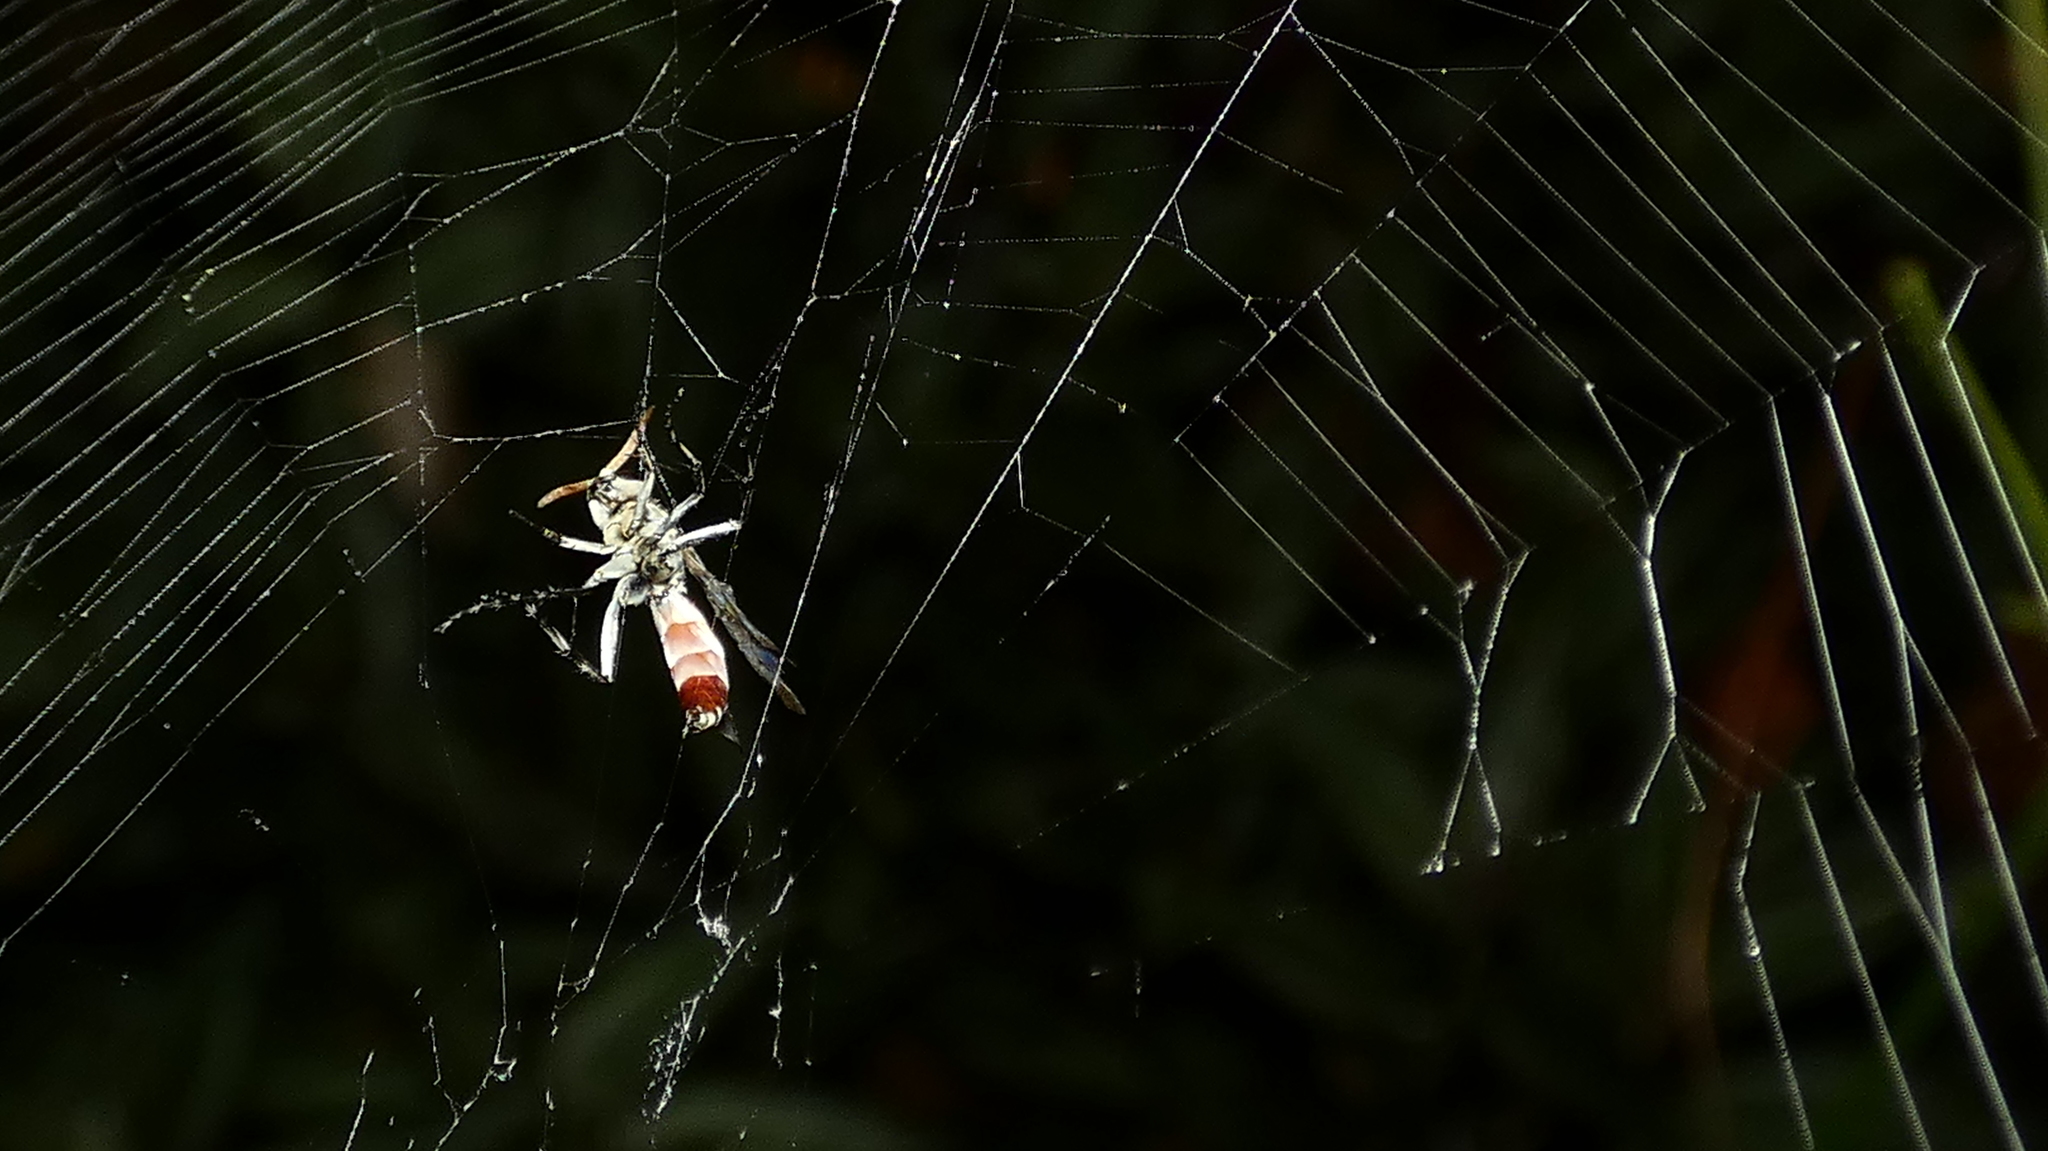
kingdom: Animalia
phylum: Arthropoda
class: Arachnida
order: Araneae
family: Araneidae
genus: Gasteracantha
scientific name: Gasteracantha cancriformis
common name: Orb weavers
